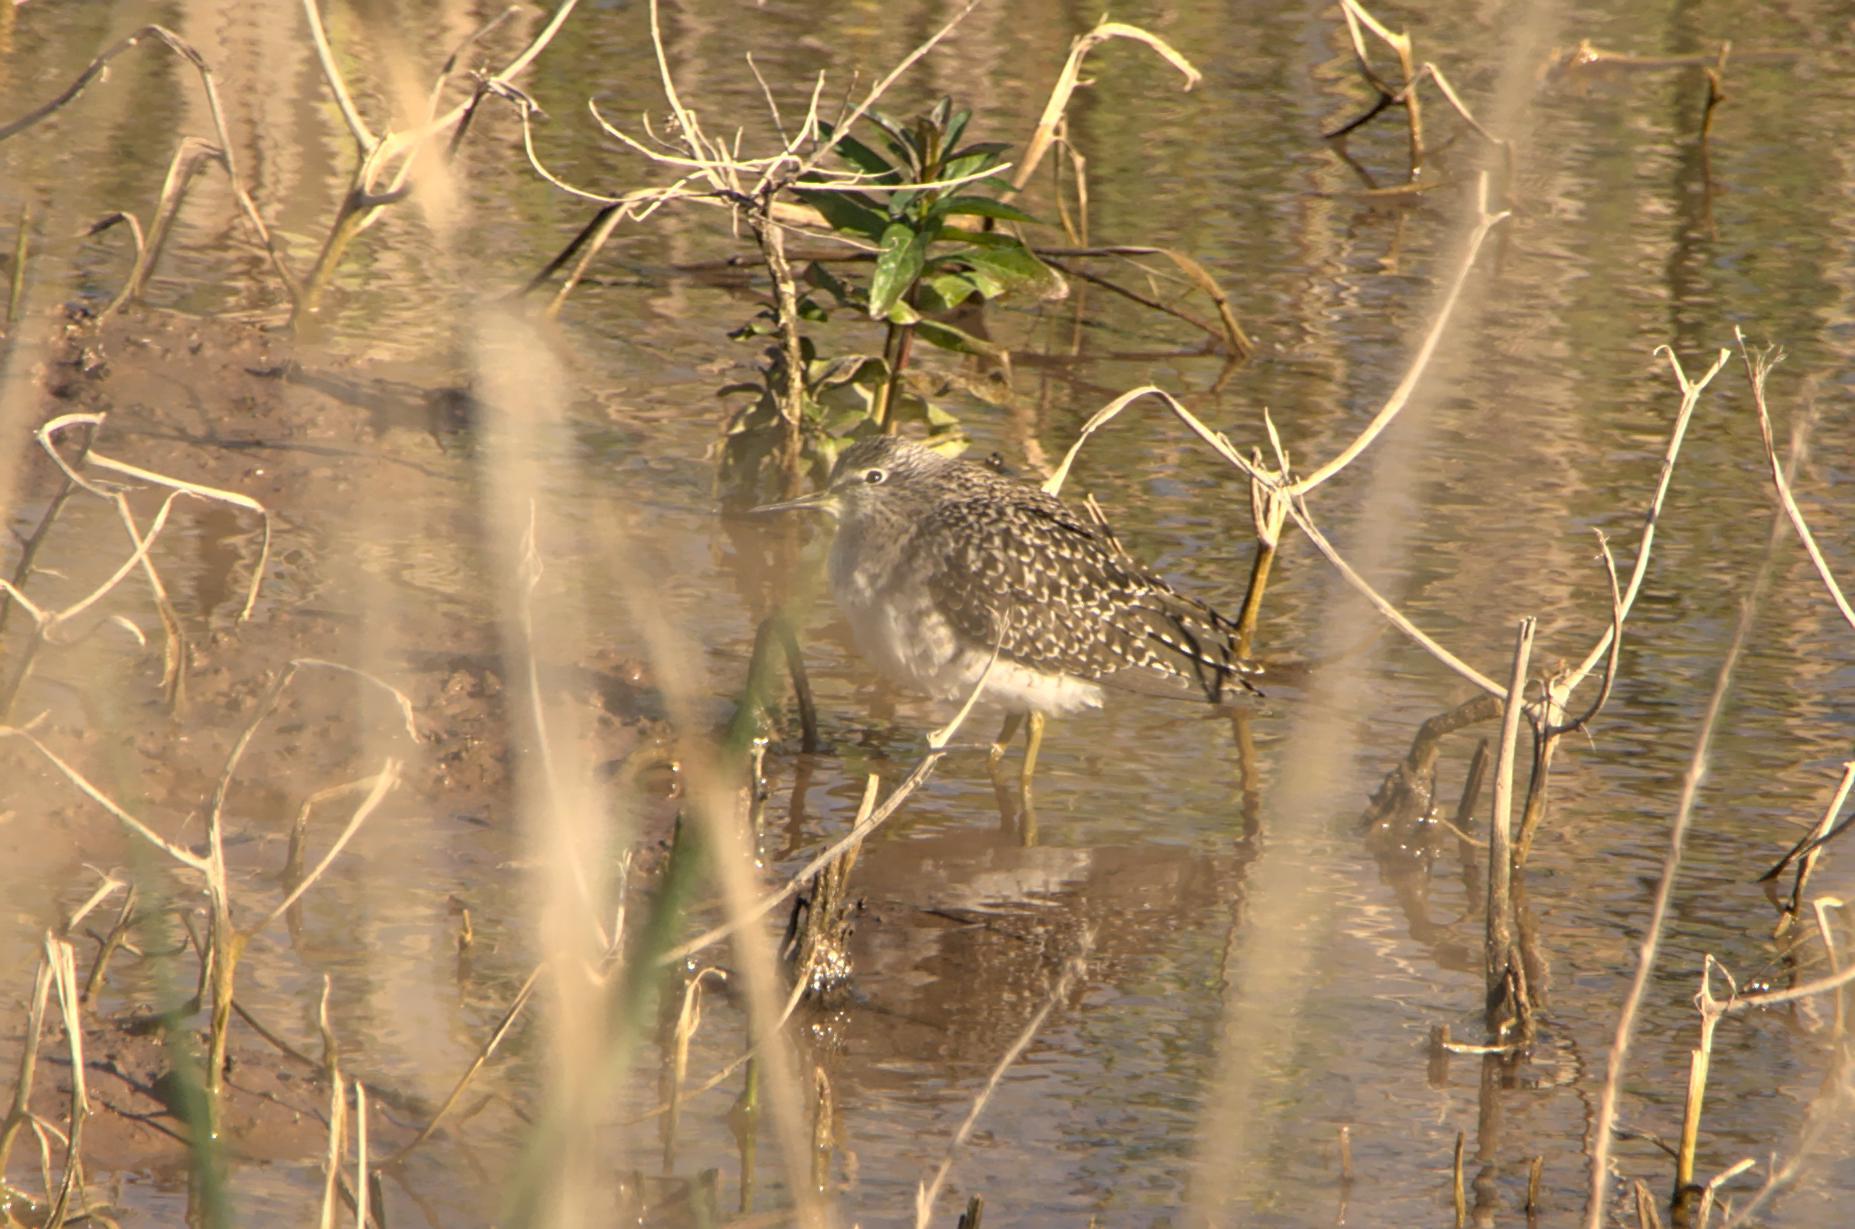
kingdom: Animalia
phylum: Chordata
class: Aves
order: Charadriiformes
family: Scolopacidae
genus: Tringa
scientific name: Tringa glareola
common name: Wood sandpiper
